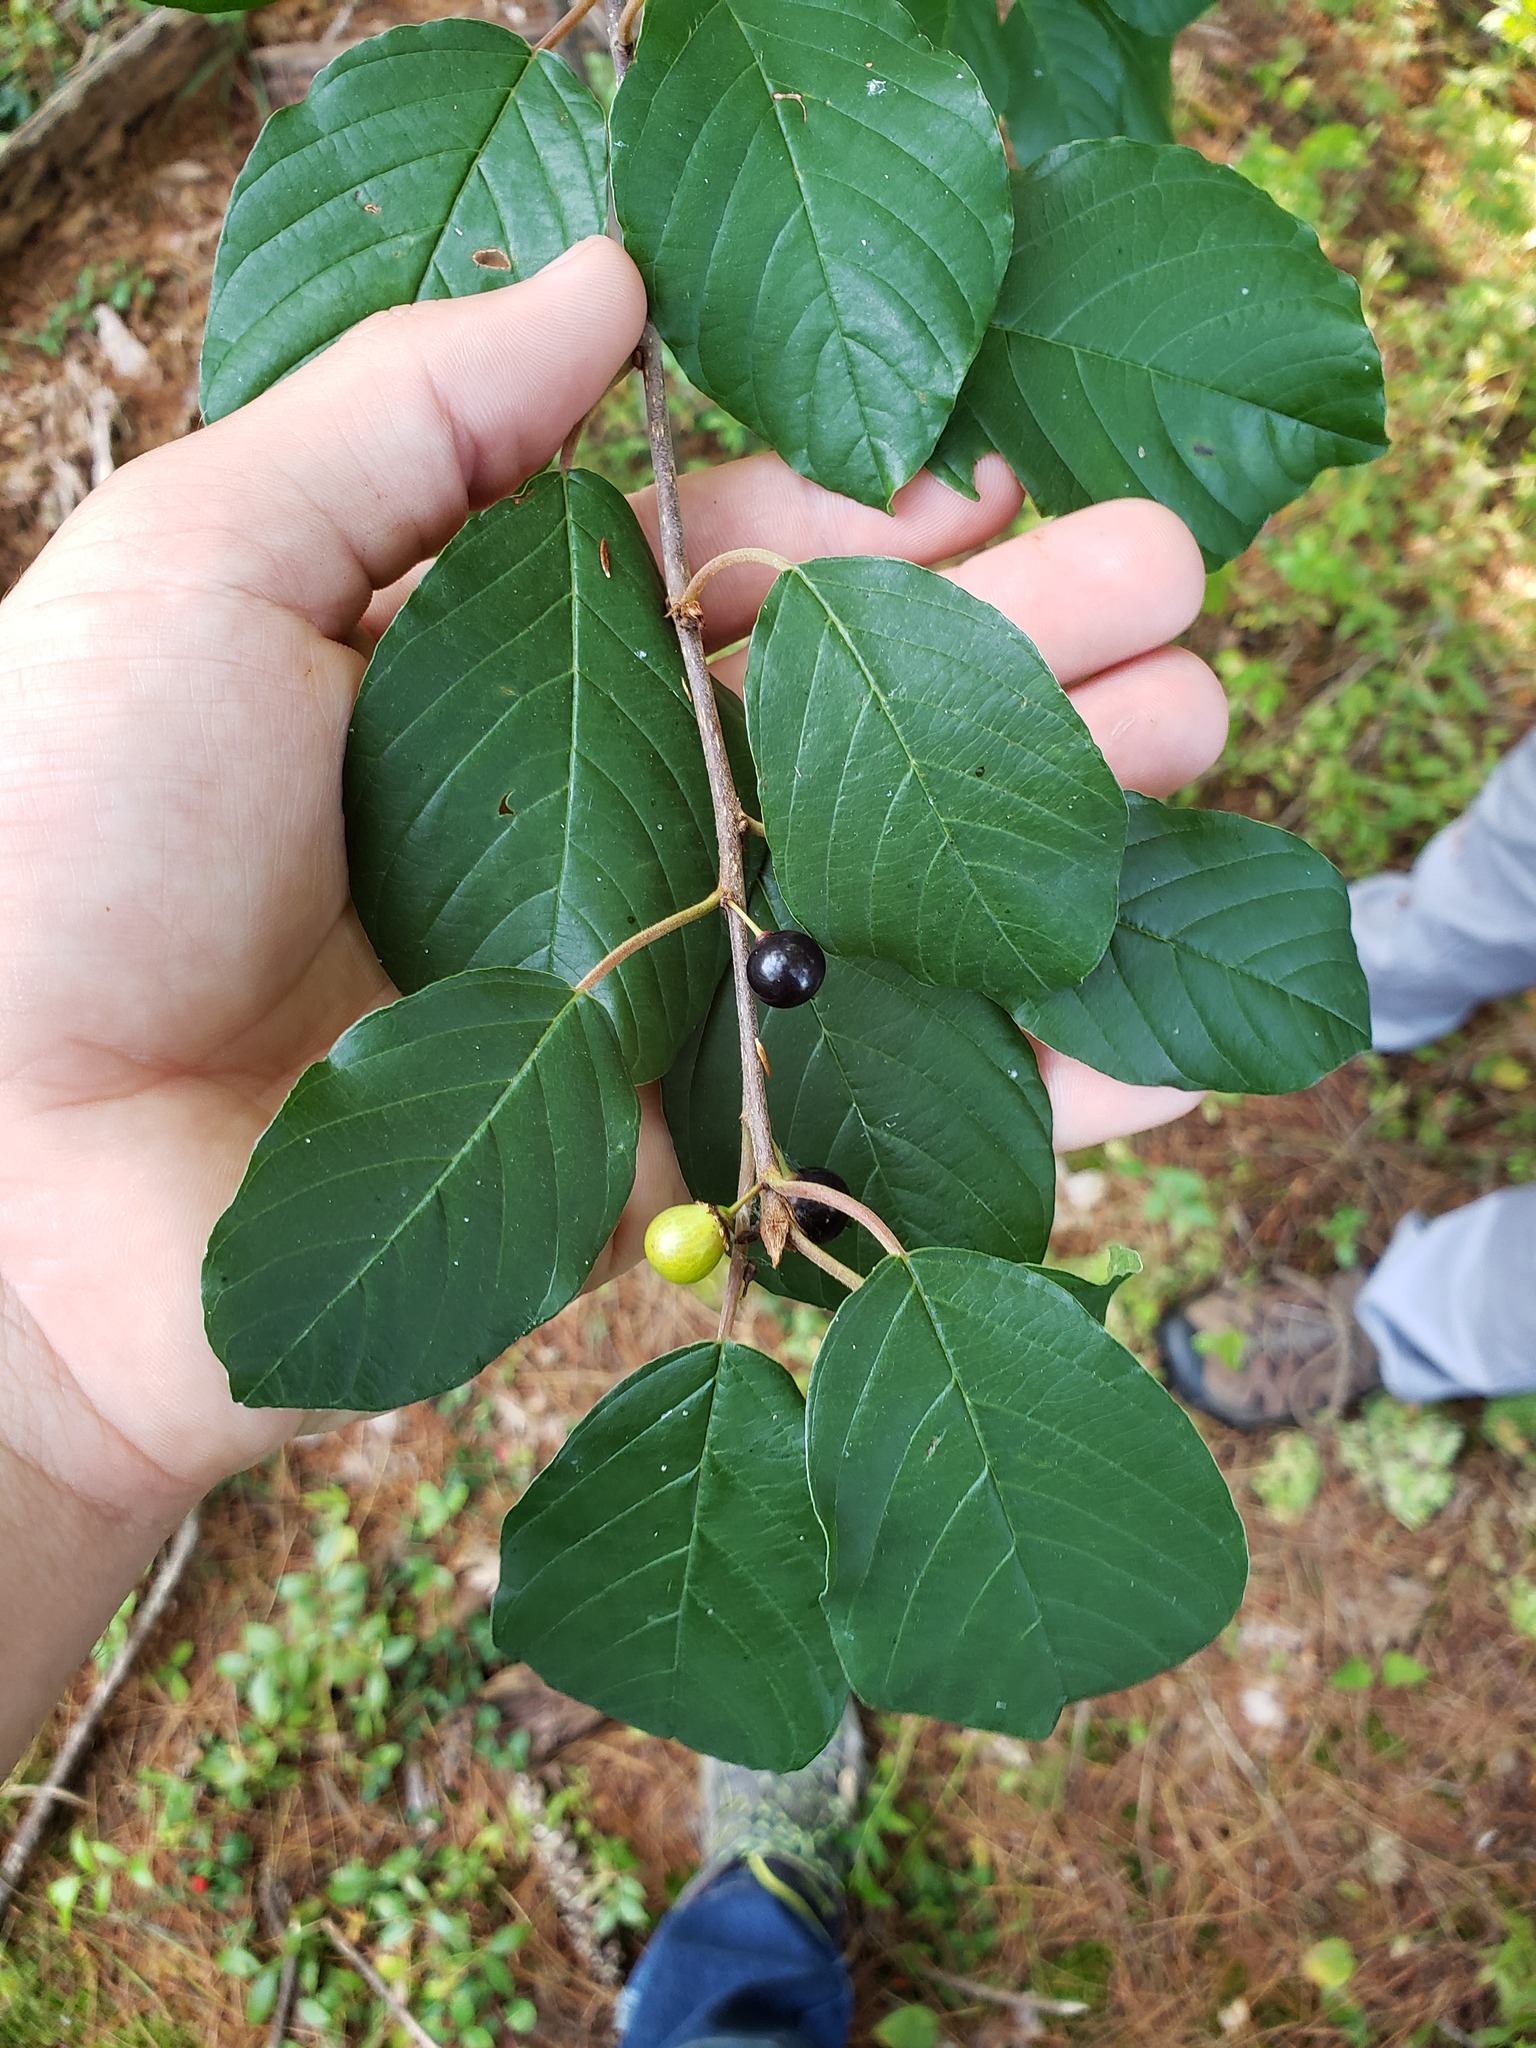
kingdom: Plantae
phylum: Tracheophyta
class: Magnoliopsida
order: Rosales
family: Rhamnaceae
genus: Frangula
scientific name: Frangula alnus
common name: Alder buckthorn
